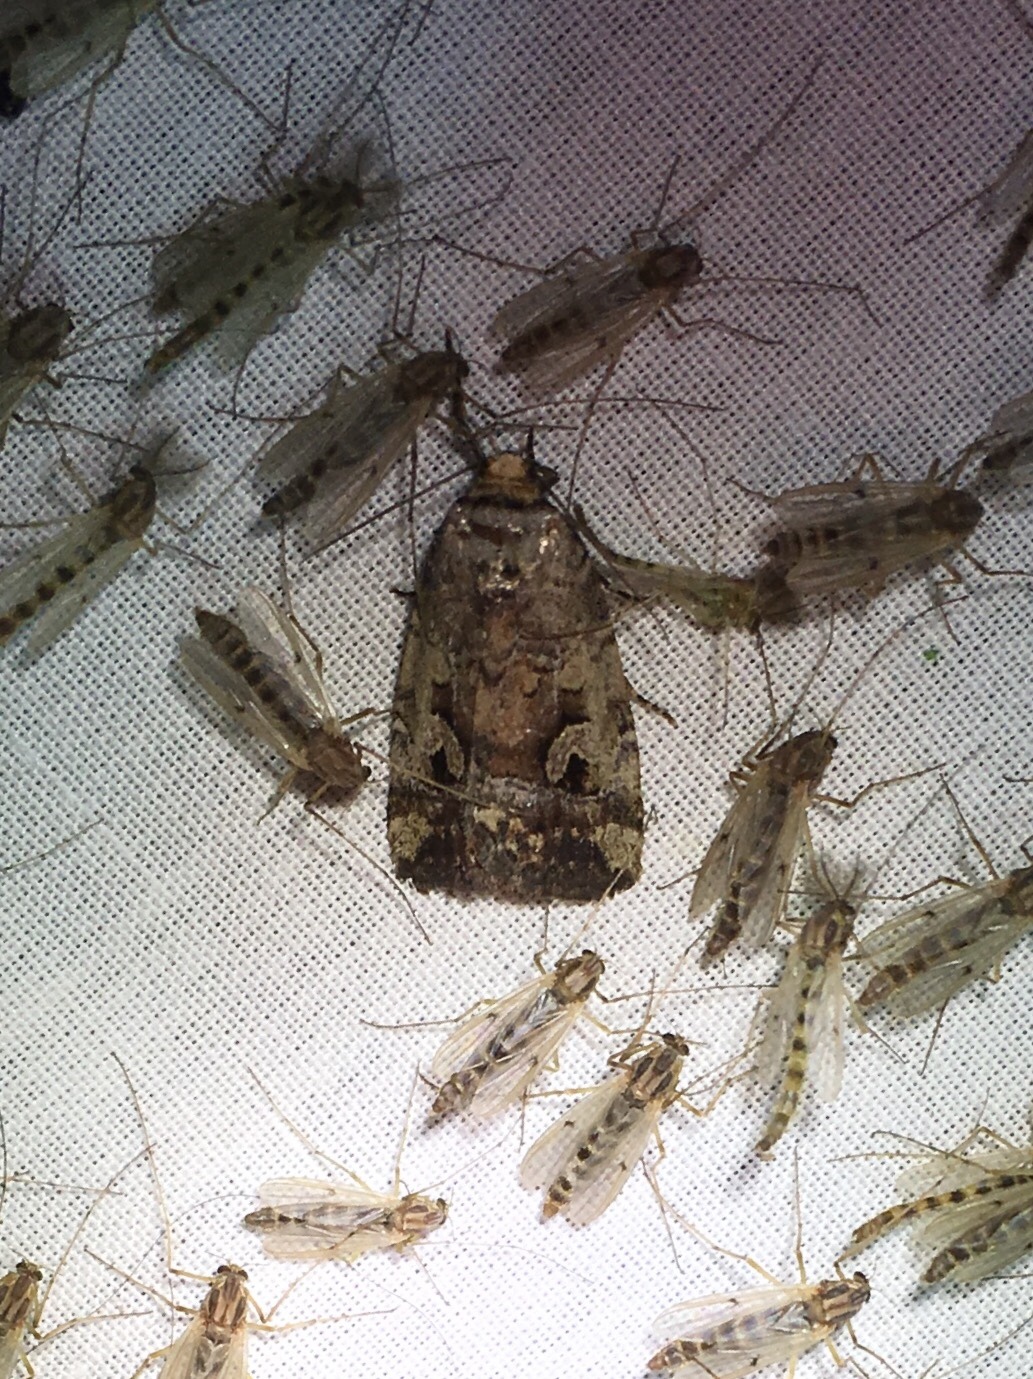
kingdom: Animalia
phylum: Arthropoda
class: Insecta
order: Lepidoptera
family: Noctuidae
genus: Elaphria
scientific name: Elaphria alapallida
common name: Pale-winged midget
